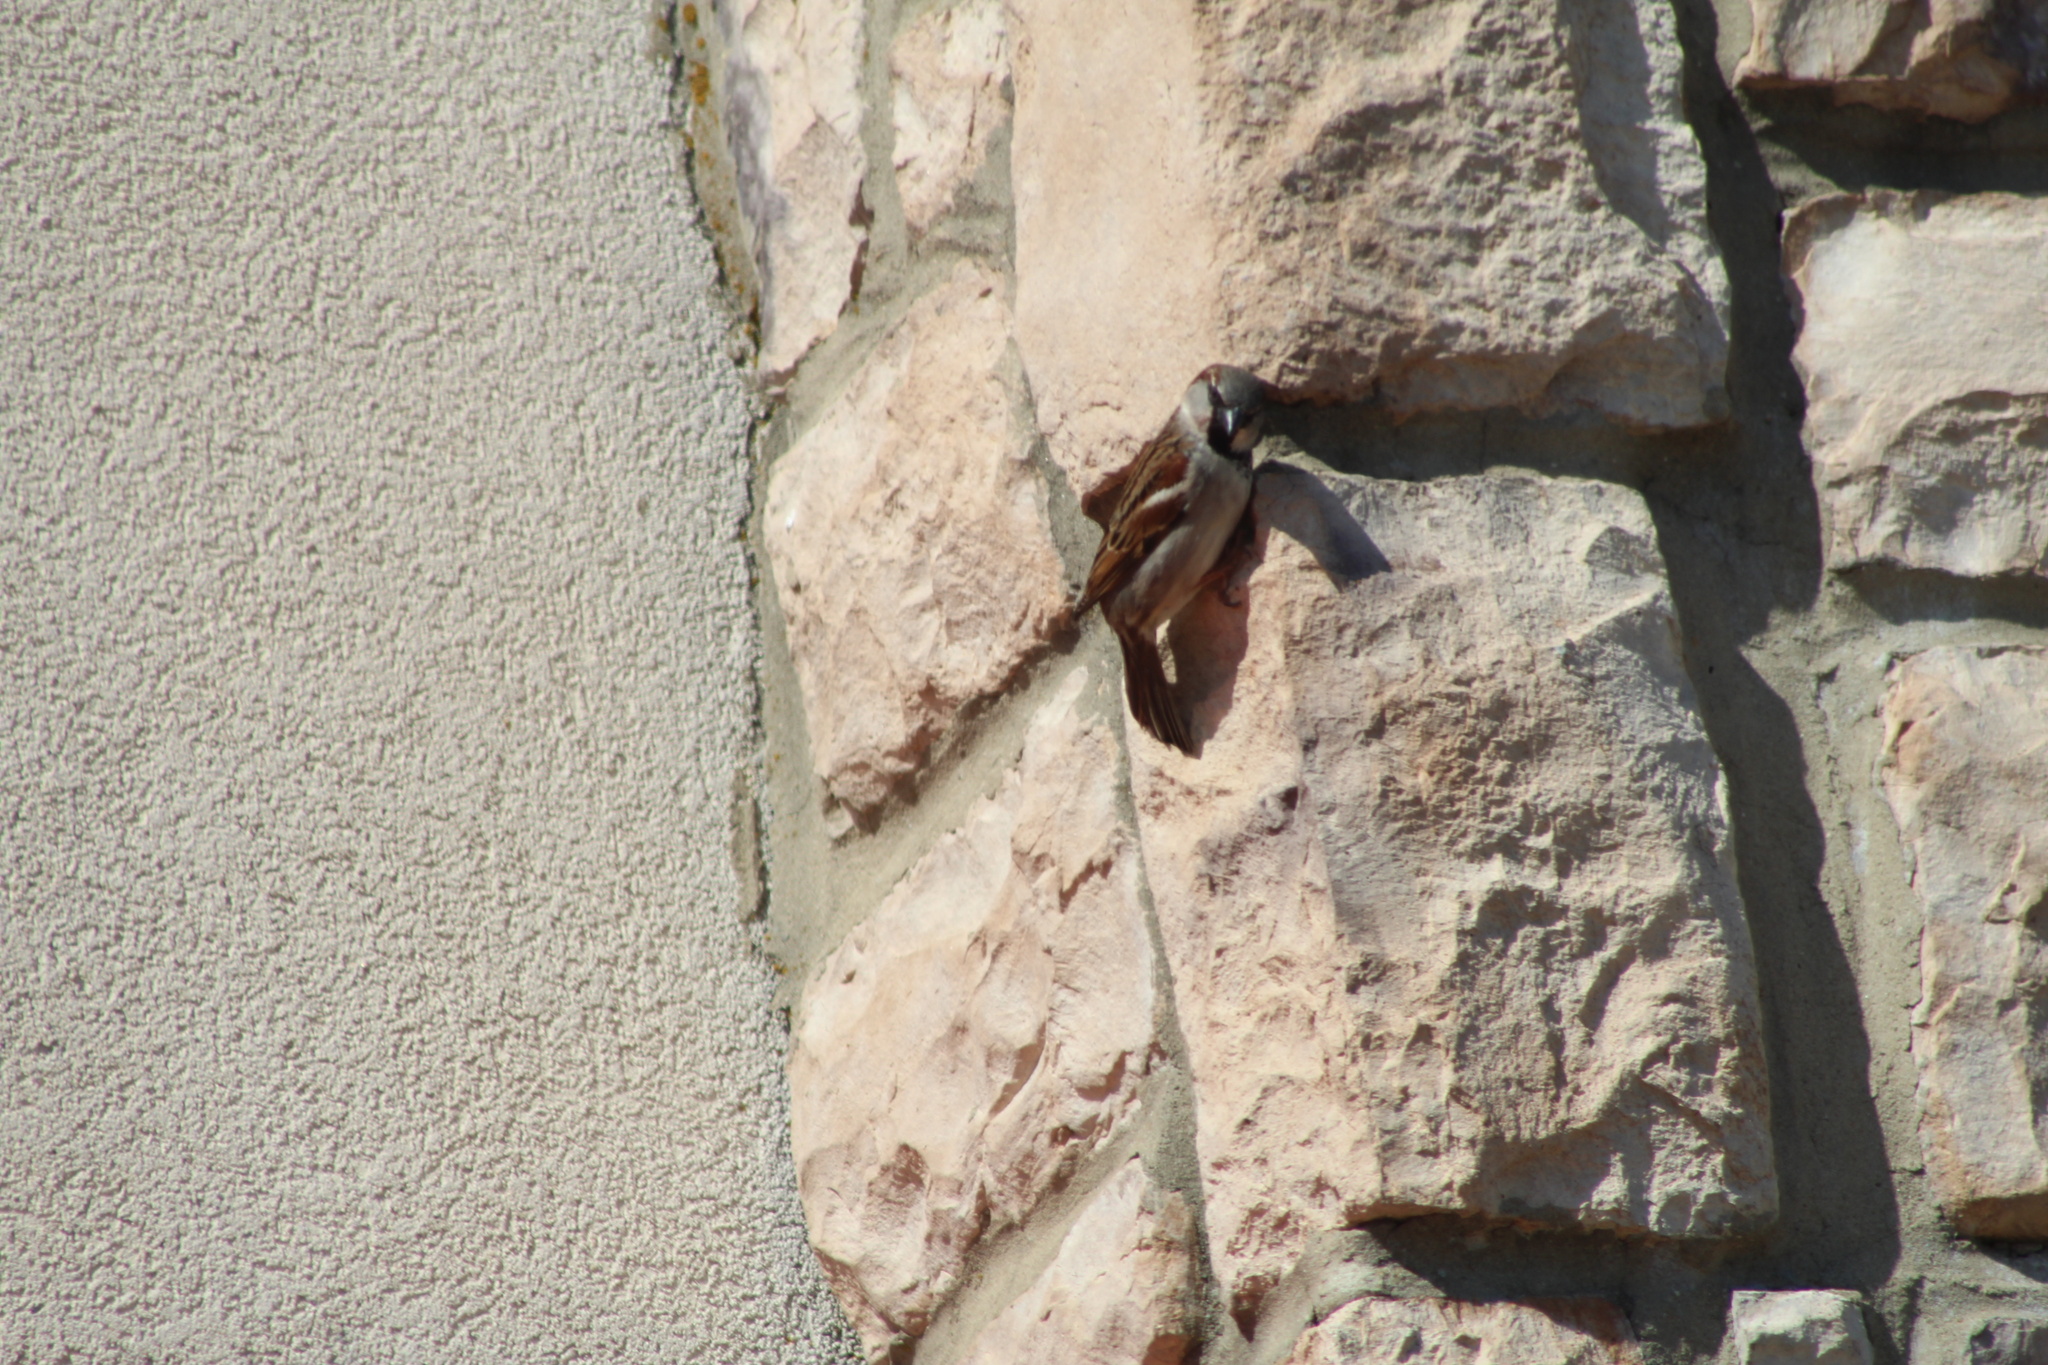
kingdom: Animalia
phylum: Chordata
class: Aves
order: Passeriformes
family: Passeridae
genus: Passer
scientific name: Passer domesticus
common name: House sparrow
